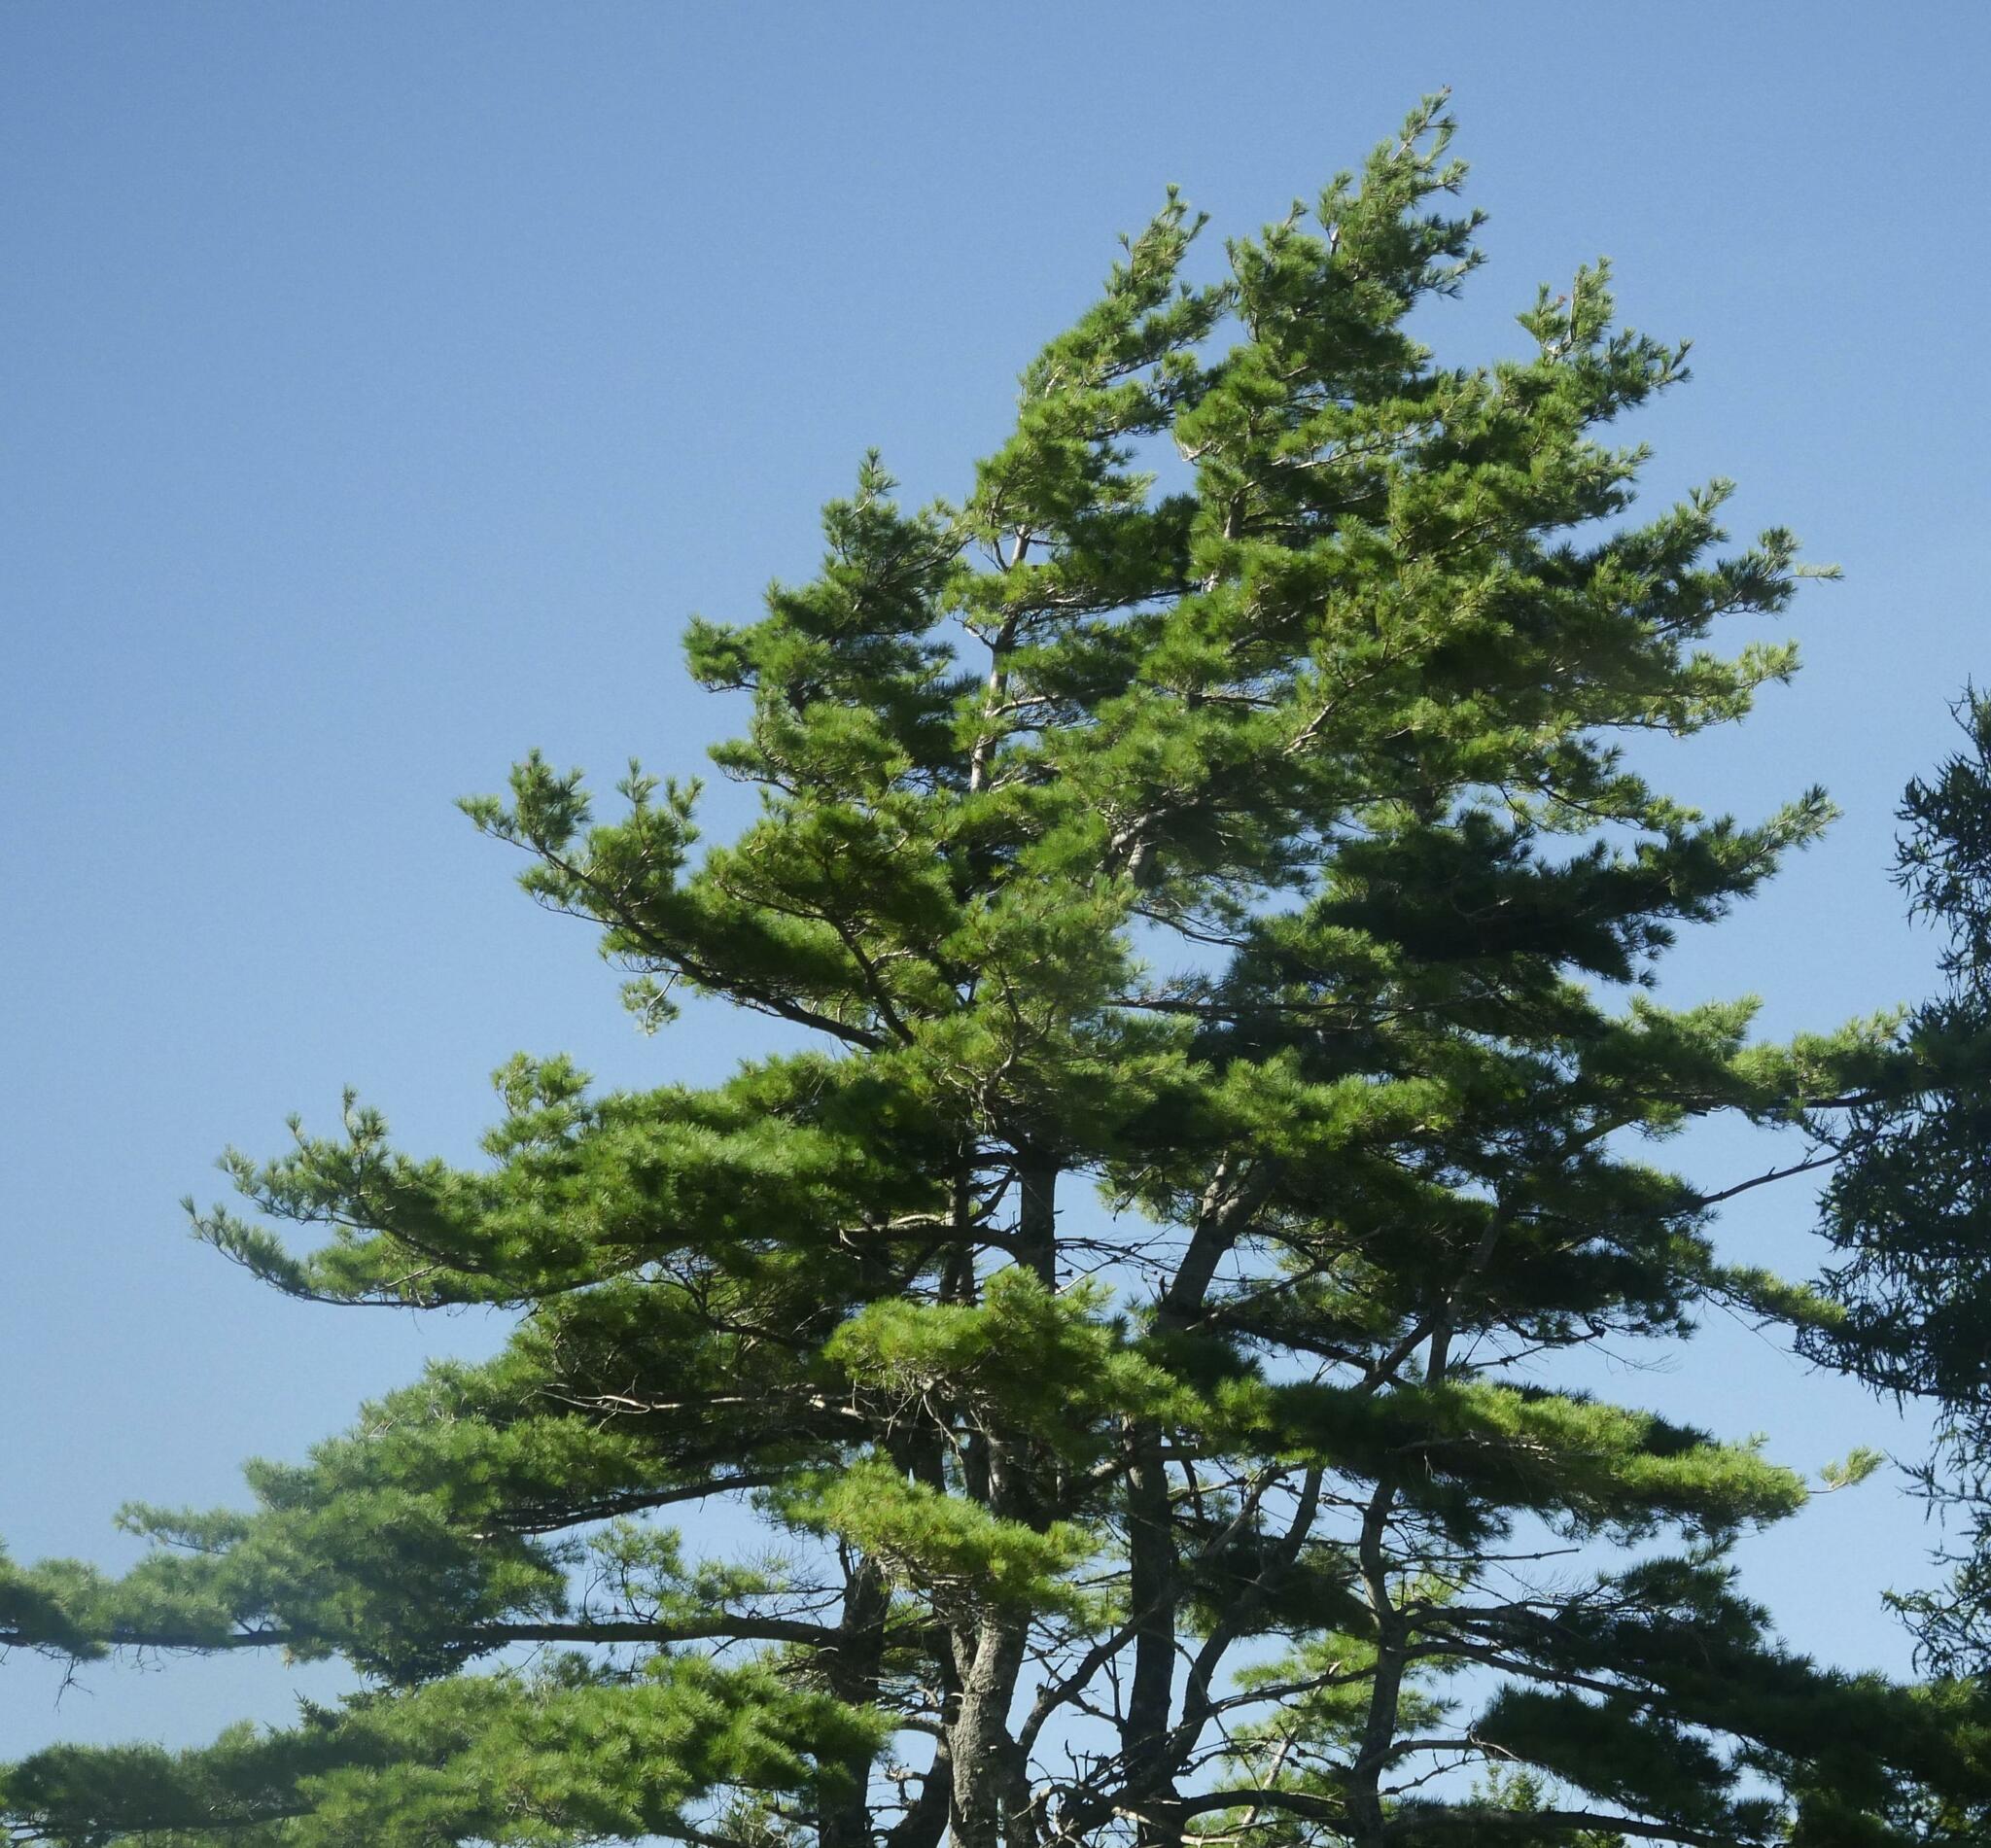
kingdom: Plantae
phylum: Tracheophyta
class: Pinopsida
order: Pinales
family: Pinaceae
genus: Pinus
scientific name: Pinus strobus
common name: Weymouth pine
